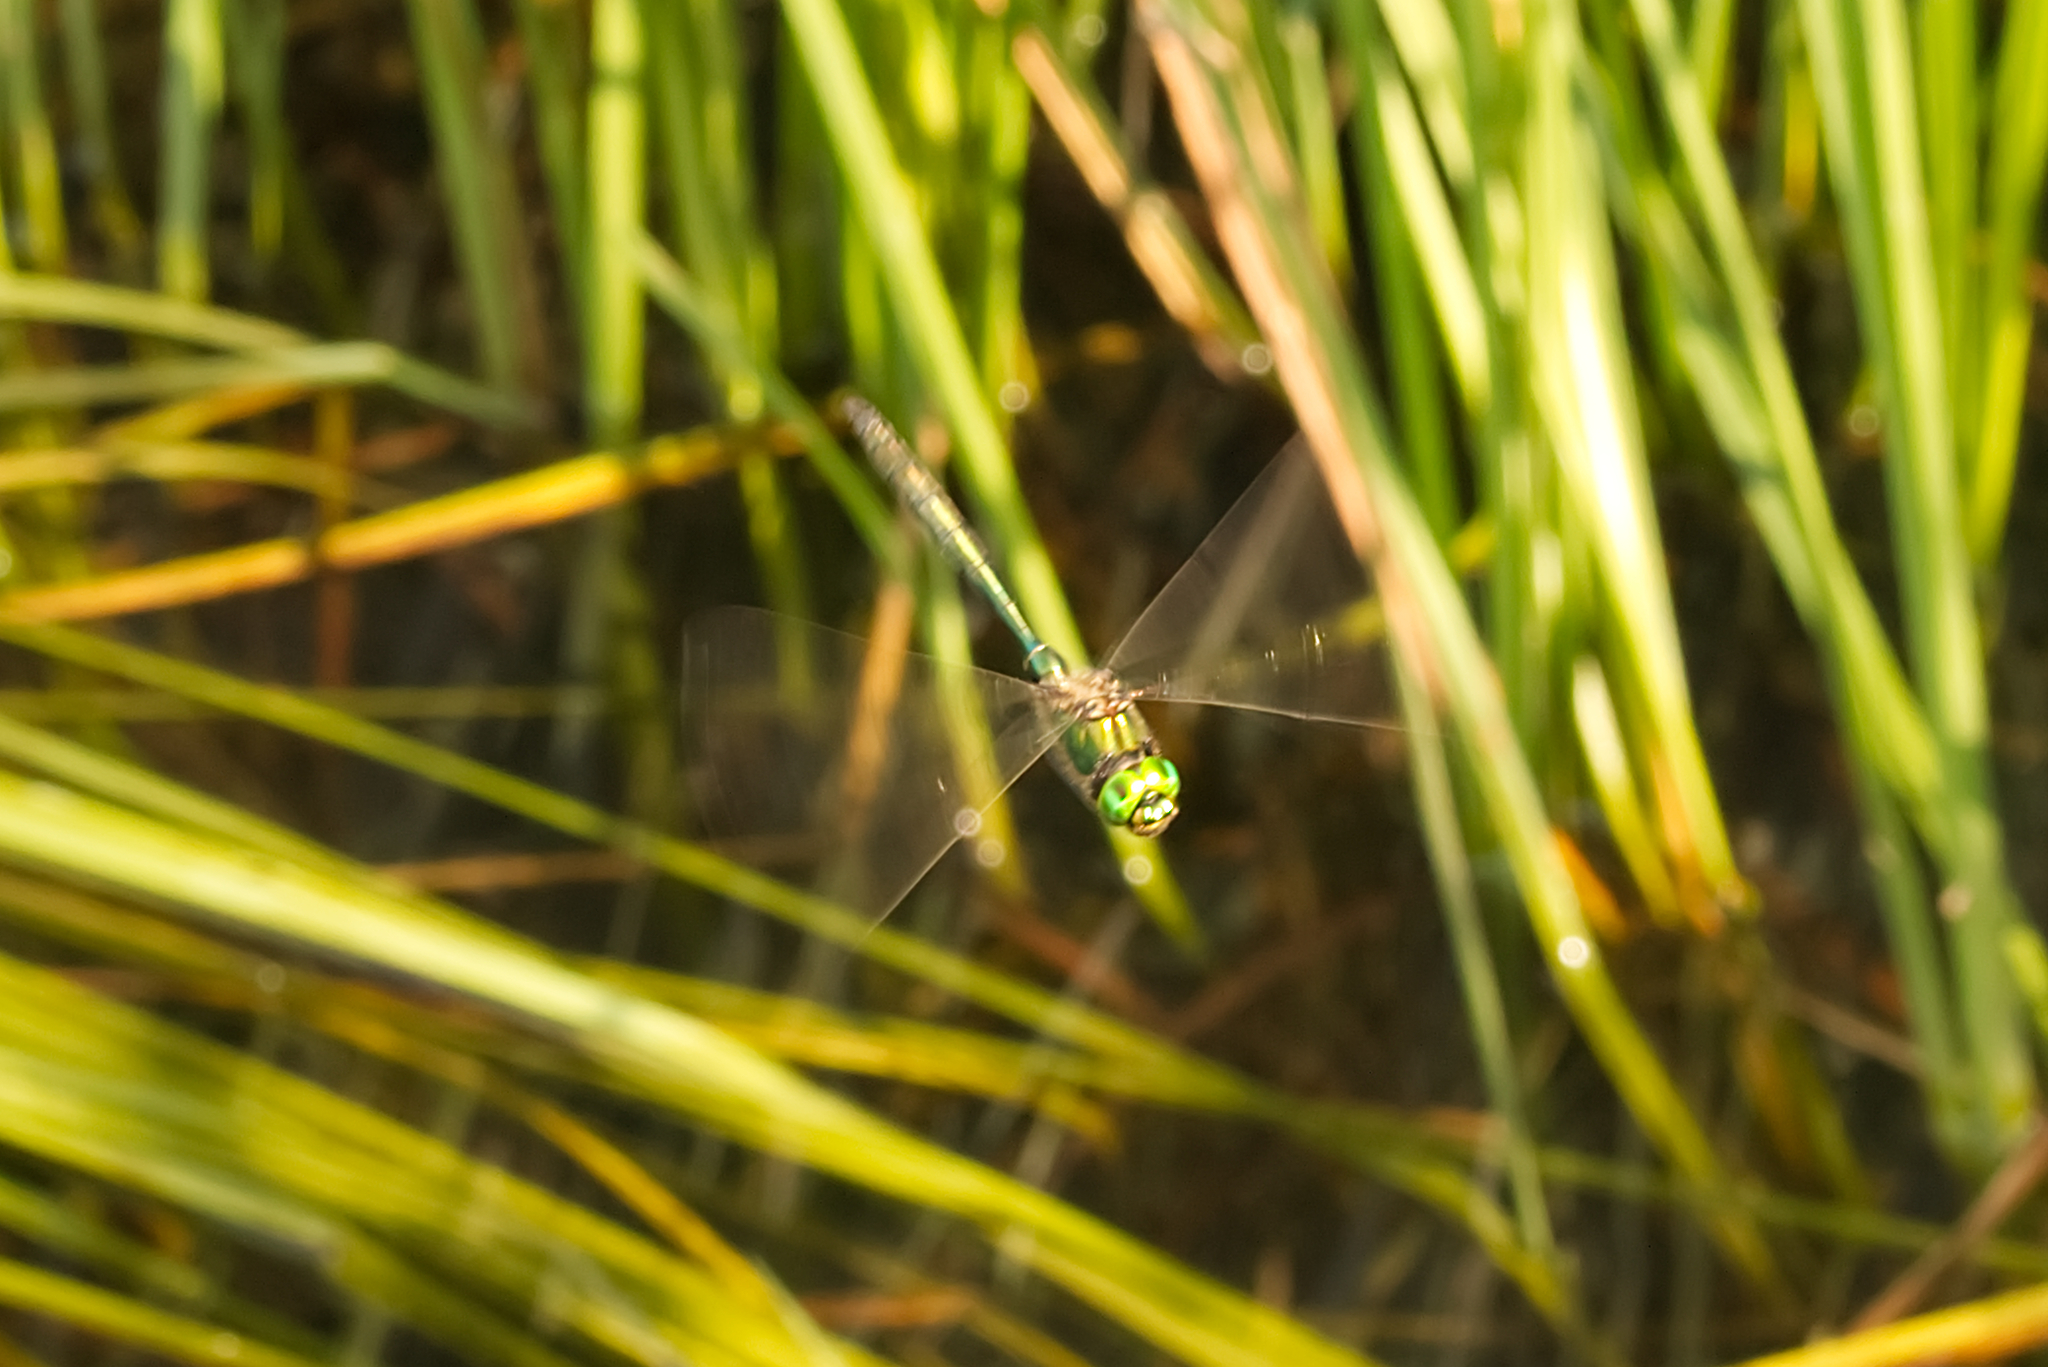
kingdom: Animalia
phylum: Arthropoda
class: Insecta
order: Odonata
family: Corduliidae
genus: Somatochlora
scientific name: Somatochlora metallica
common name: Brilliant emerald
